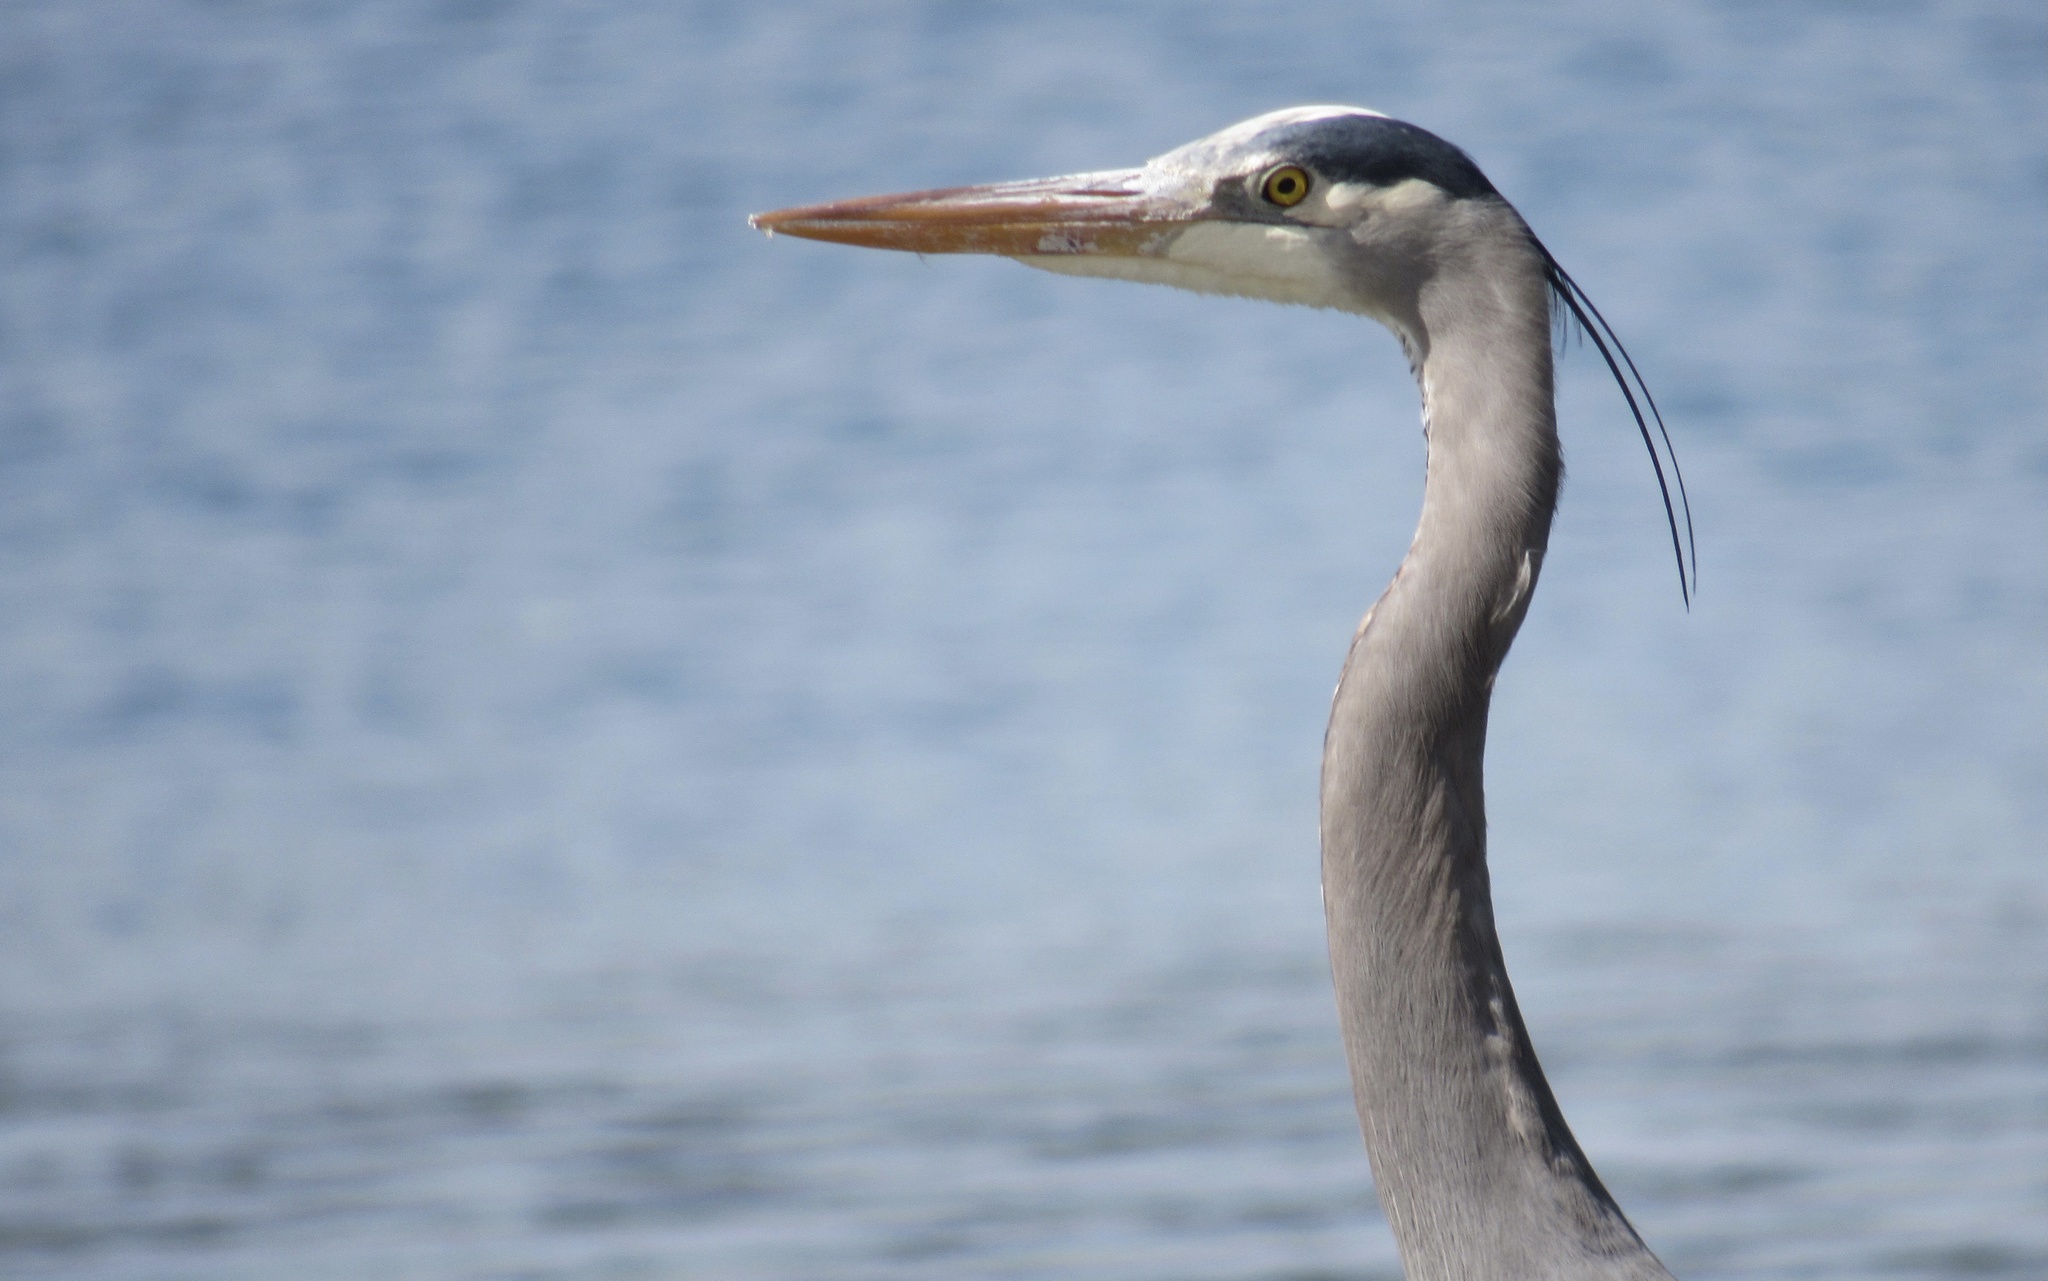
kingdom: Animalia
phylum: Chordata
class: Aves
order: Pelecaniformes
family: Ardeidae
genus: Ardea
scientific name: Ardea herodias
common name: Great blue heron
